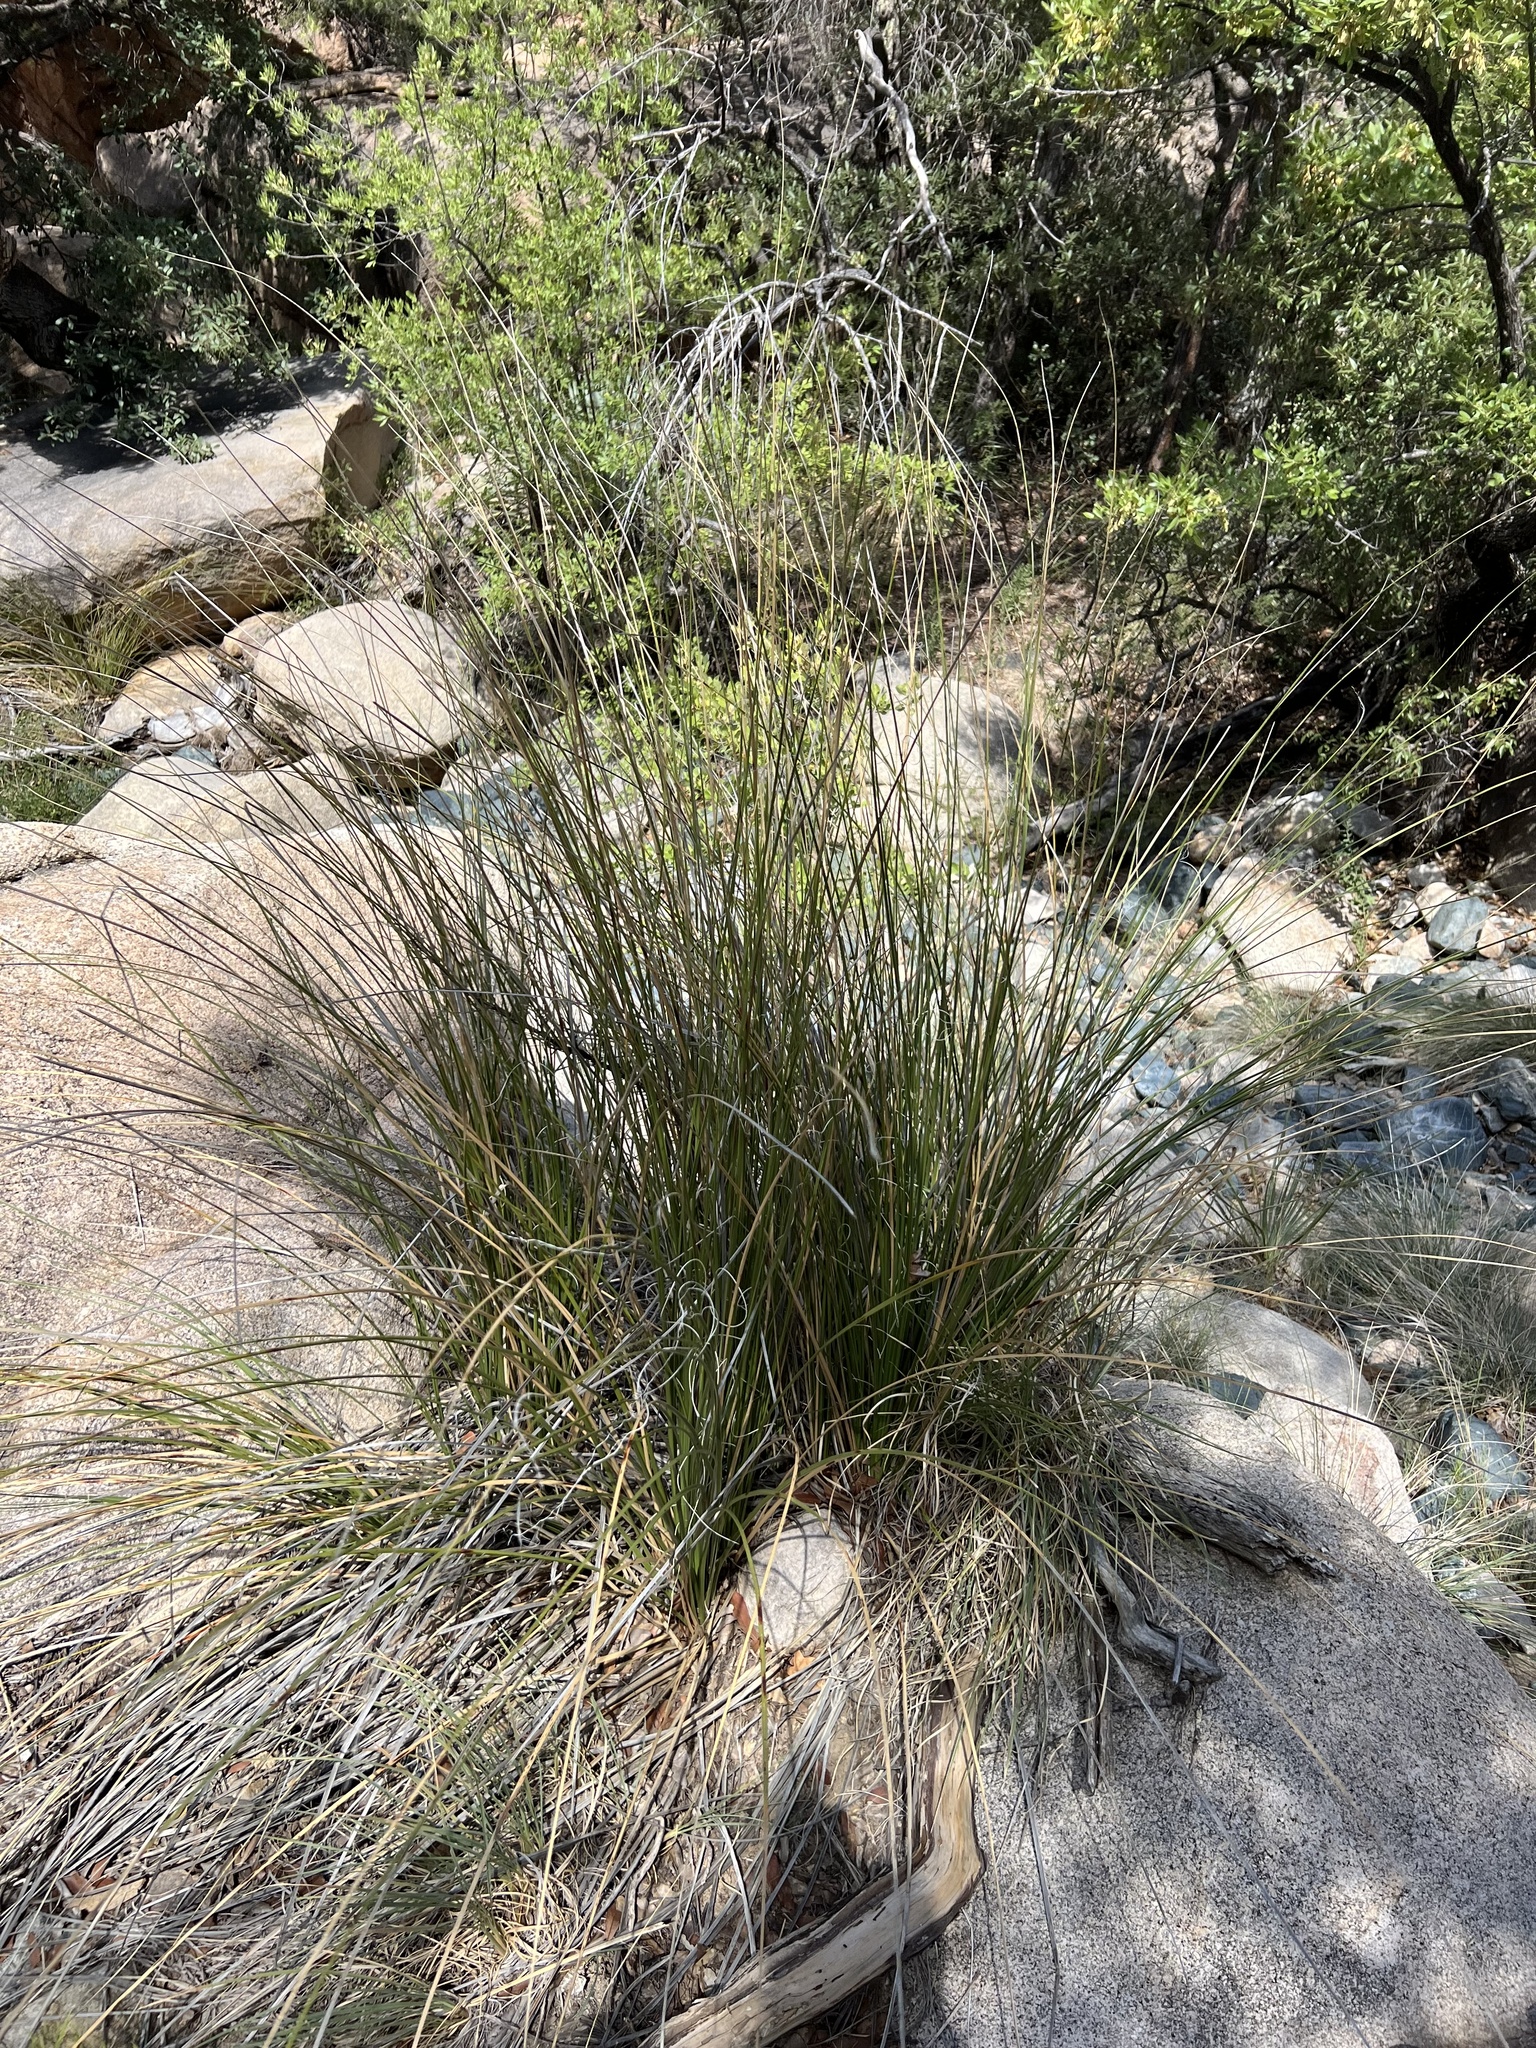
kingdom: Plantae
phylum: Tracheophyta
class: Liliopsida
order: Asparagales
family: Asparagaceae
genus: Nolina
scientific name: Nolina microcarpa
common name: Bear-grass
